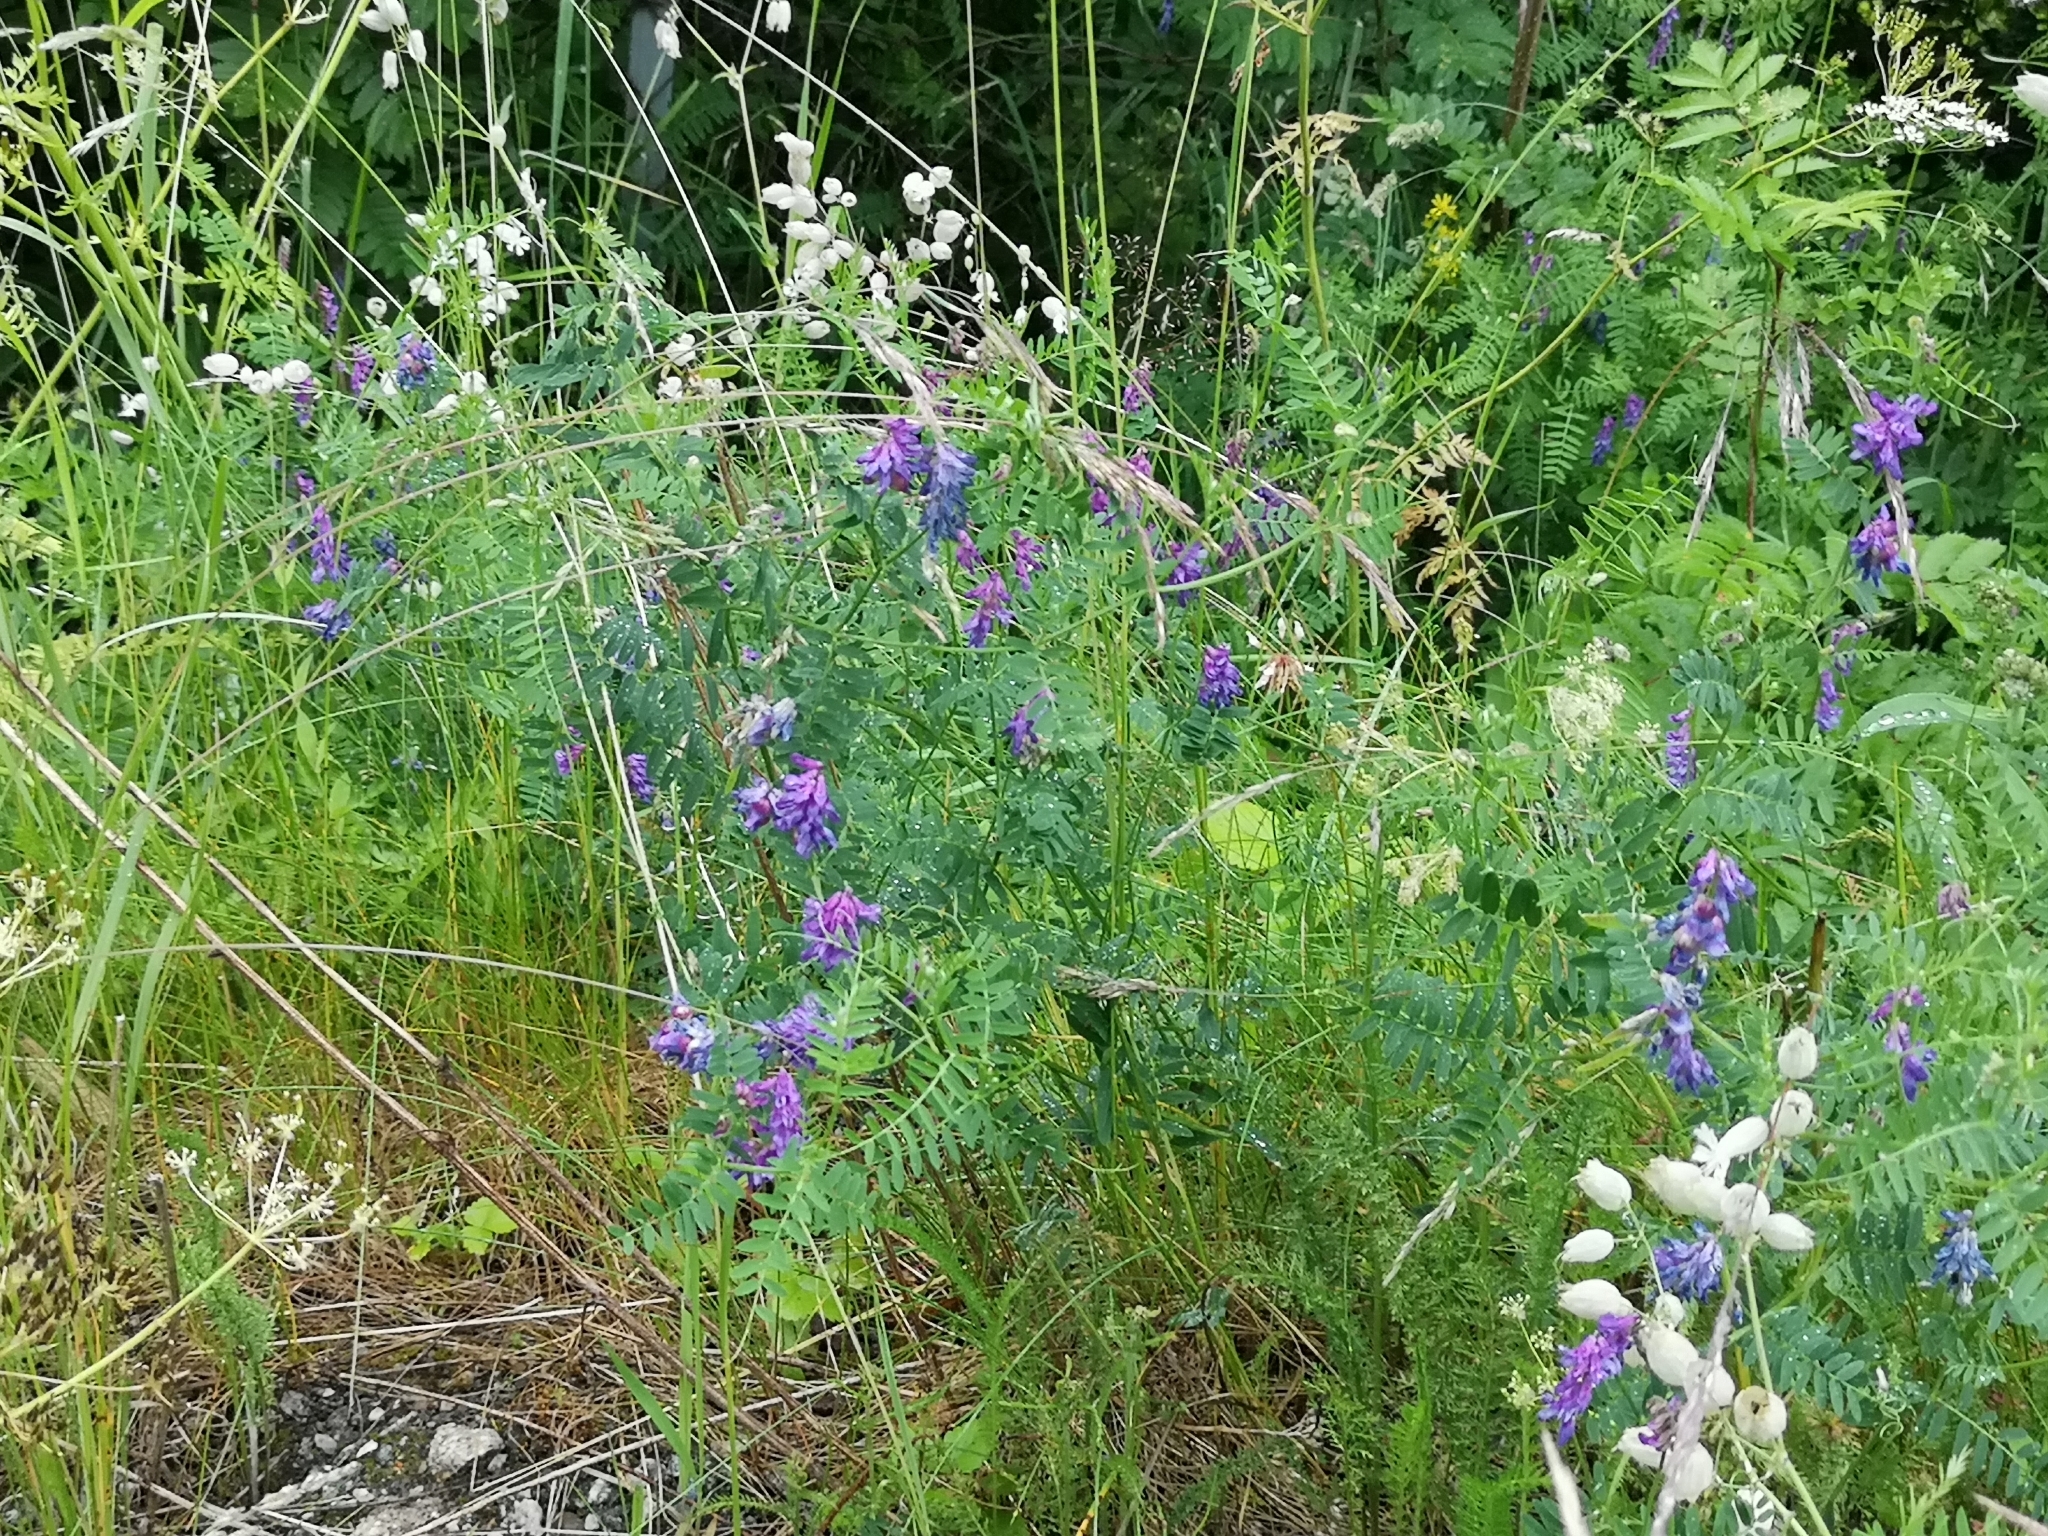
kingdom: Plantae
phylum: Tracheophyta
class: Magnoliopsida
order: Fabales
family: Fabaceae
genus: Vicia
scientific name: Vicia cracca
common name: Bird vetch
